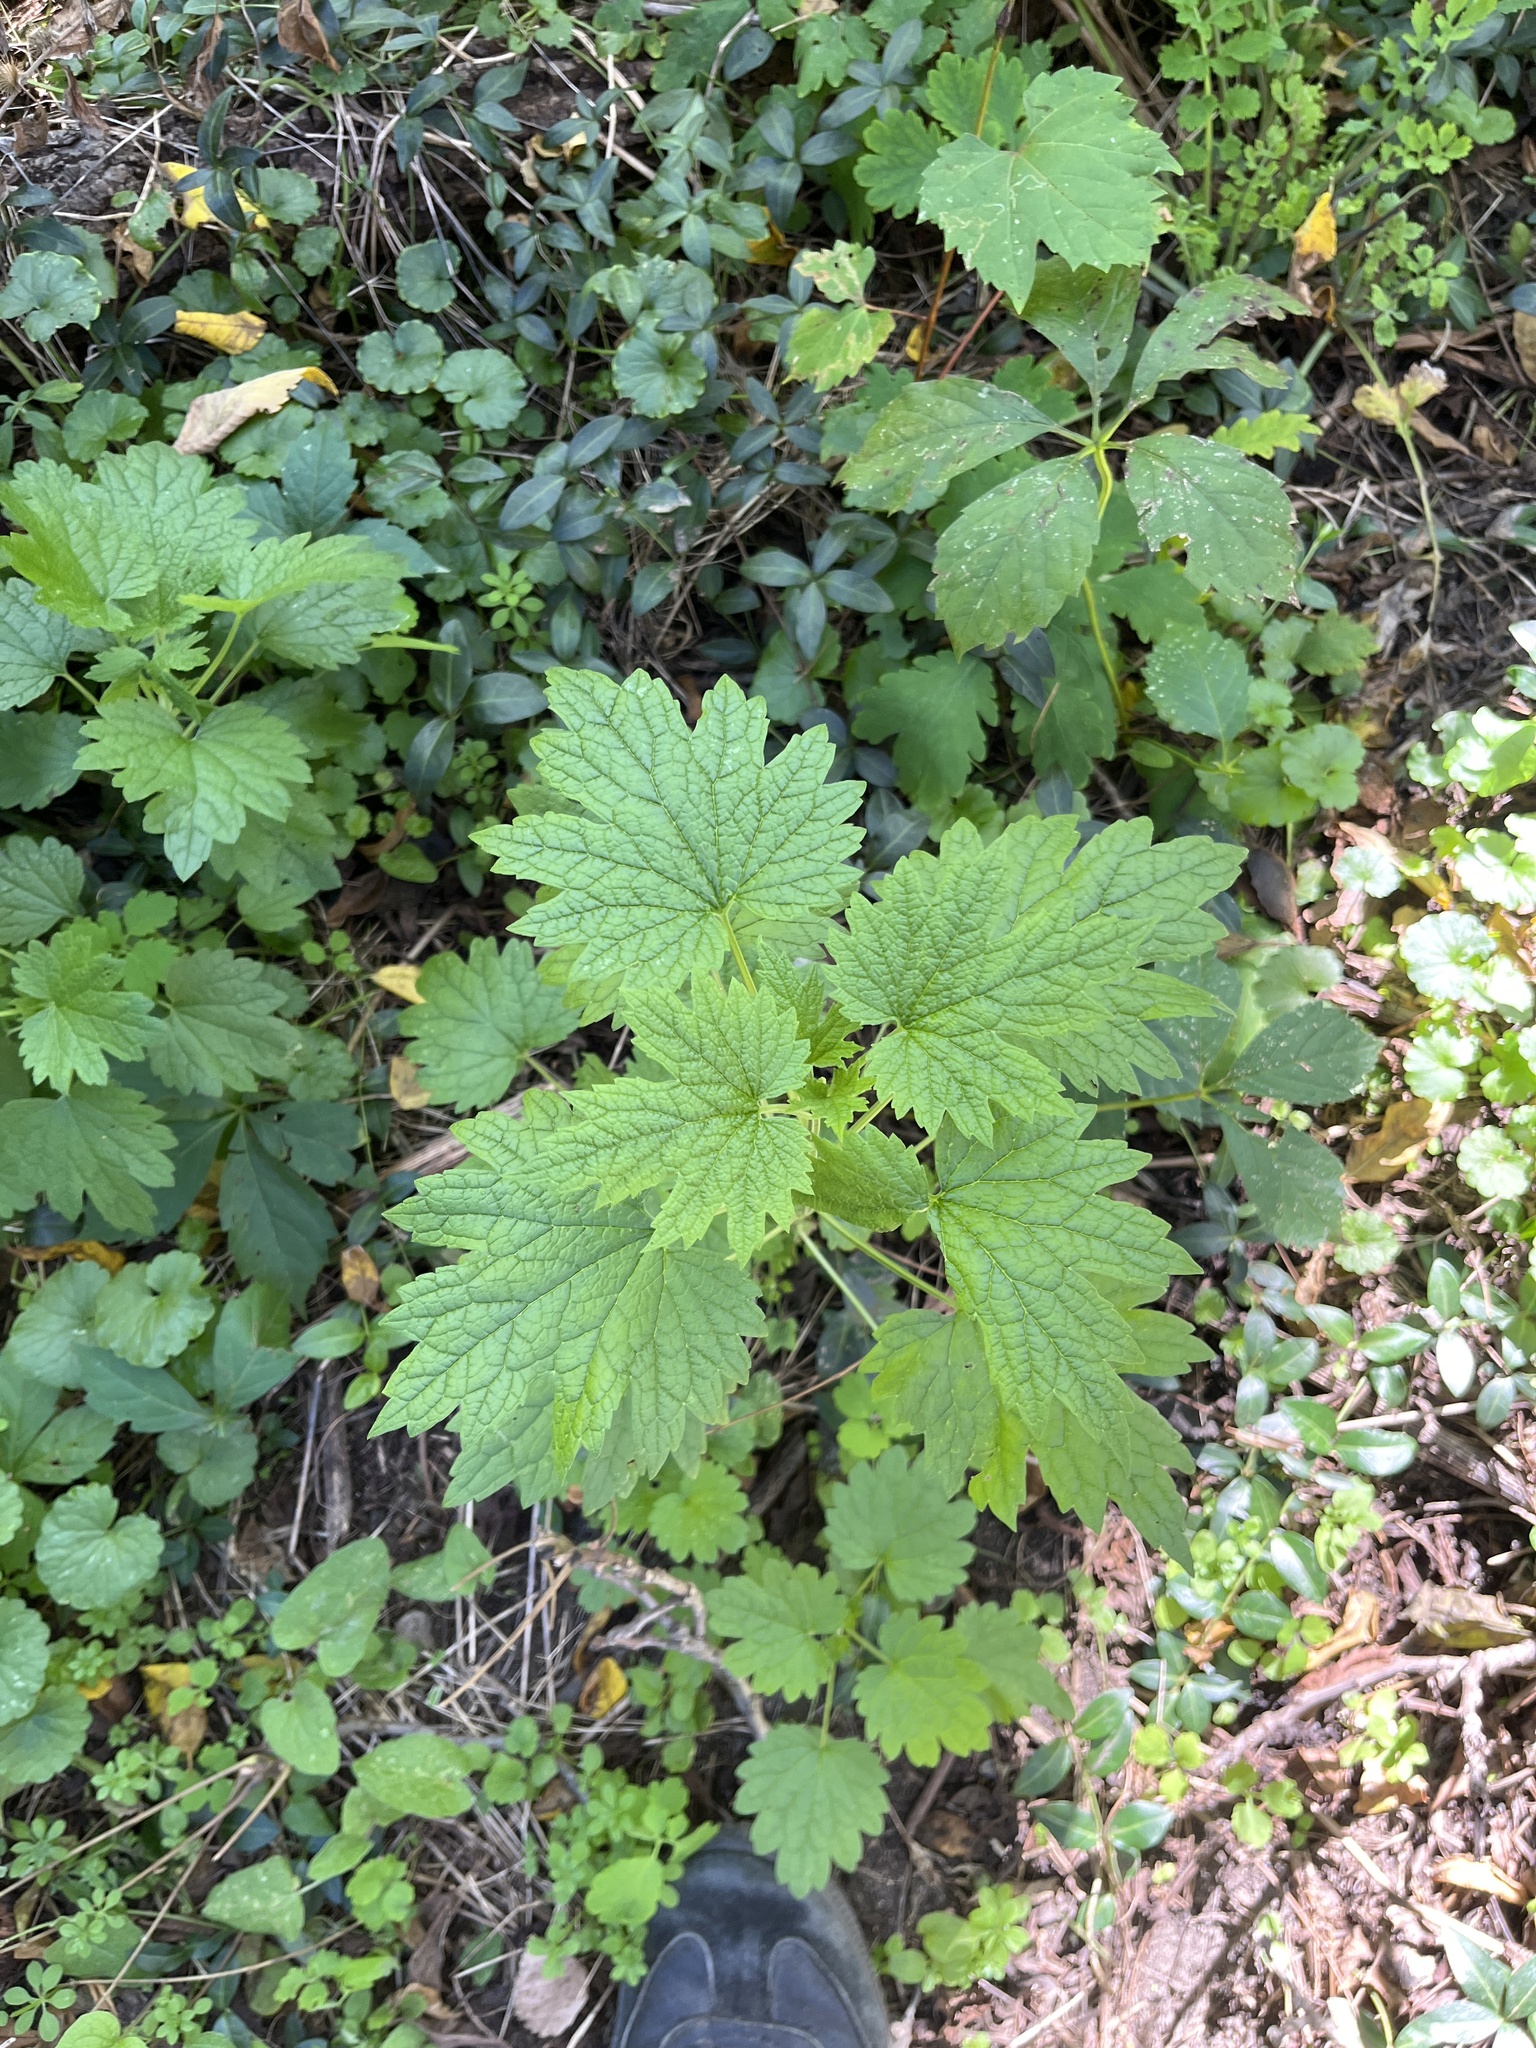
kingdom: Plantae
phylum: Tracheophyta
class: Magnoliopsida
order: Lamiales
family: Lamiaceae
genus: Leonurus
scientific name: Leonurus cardiaca
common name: Motherwort
